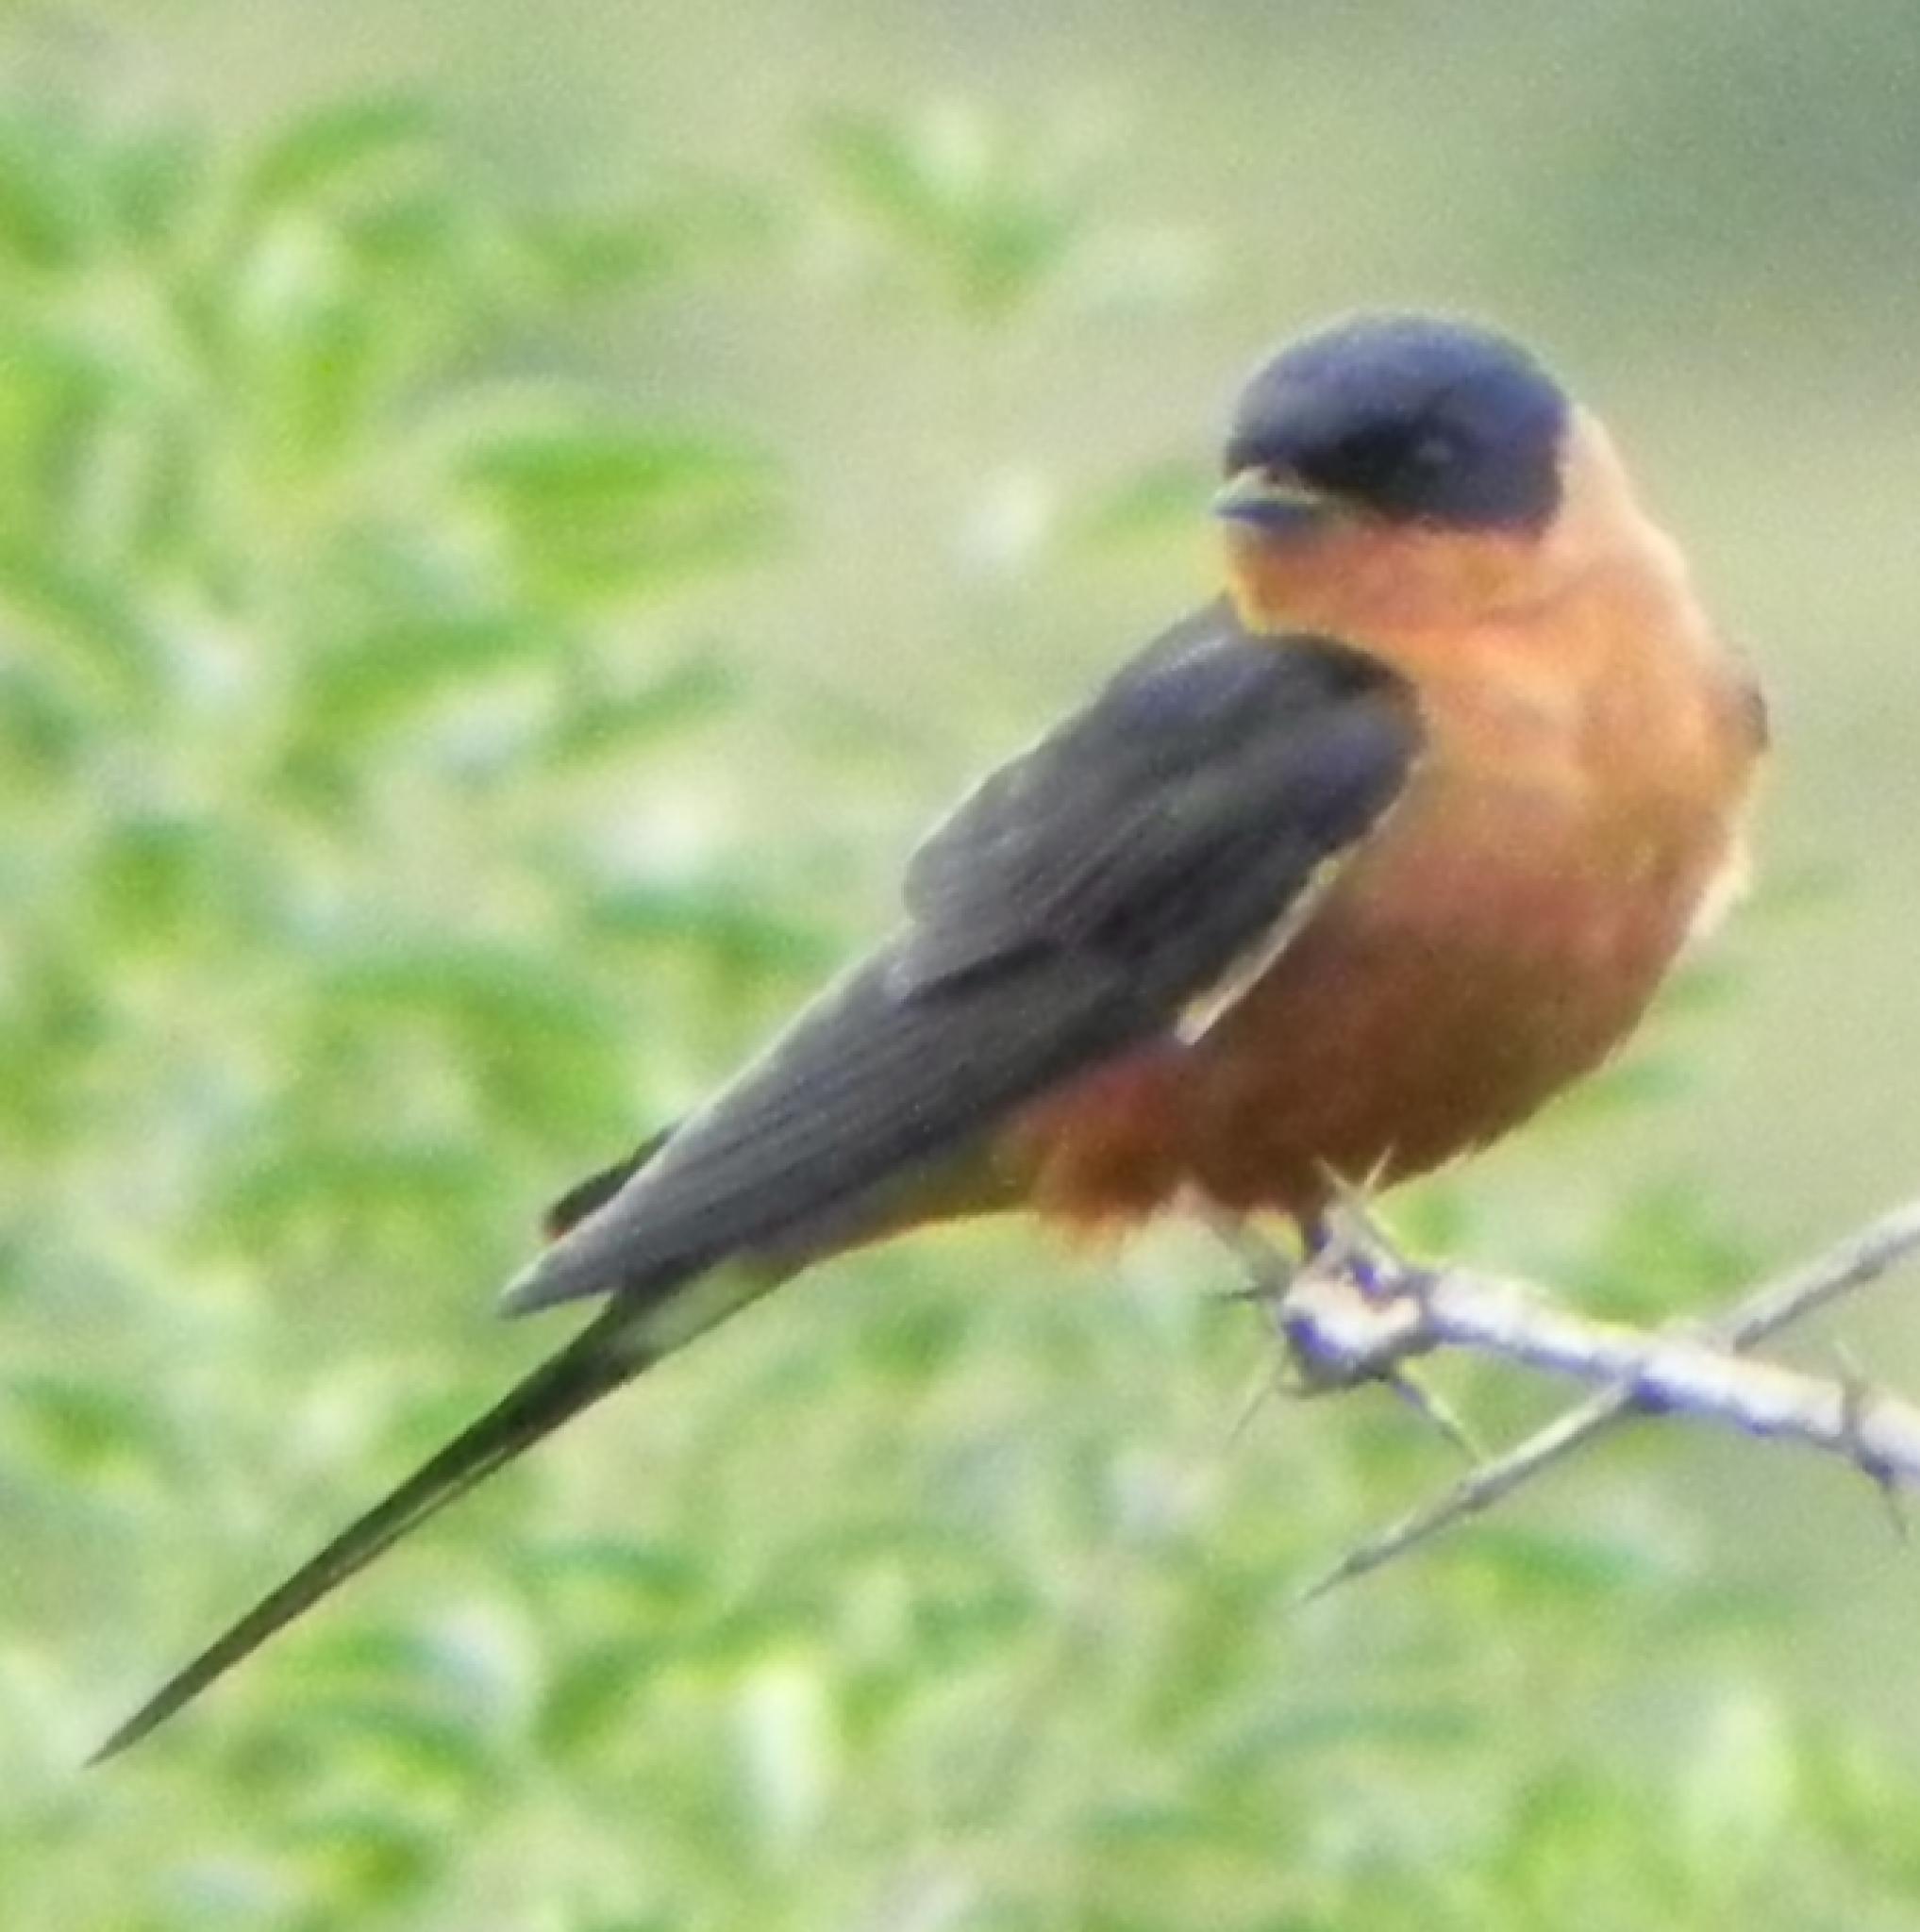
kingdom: Animalia
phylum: Chordata
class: Aves
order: Passeriformes
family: Hirundinidae
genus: Cecropis
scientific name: Cecropis semirufa
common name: Red-breasted swallow
